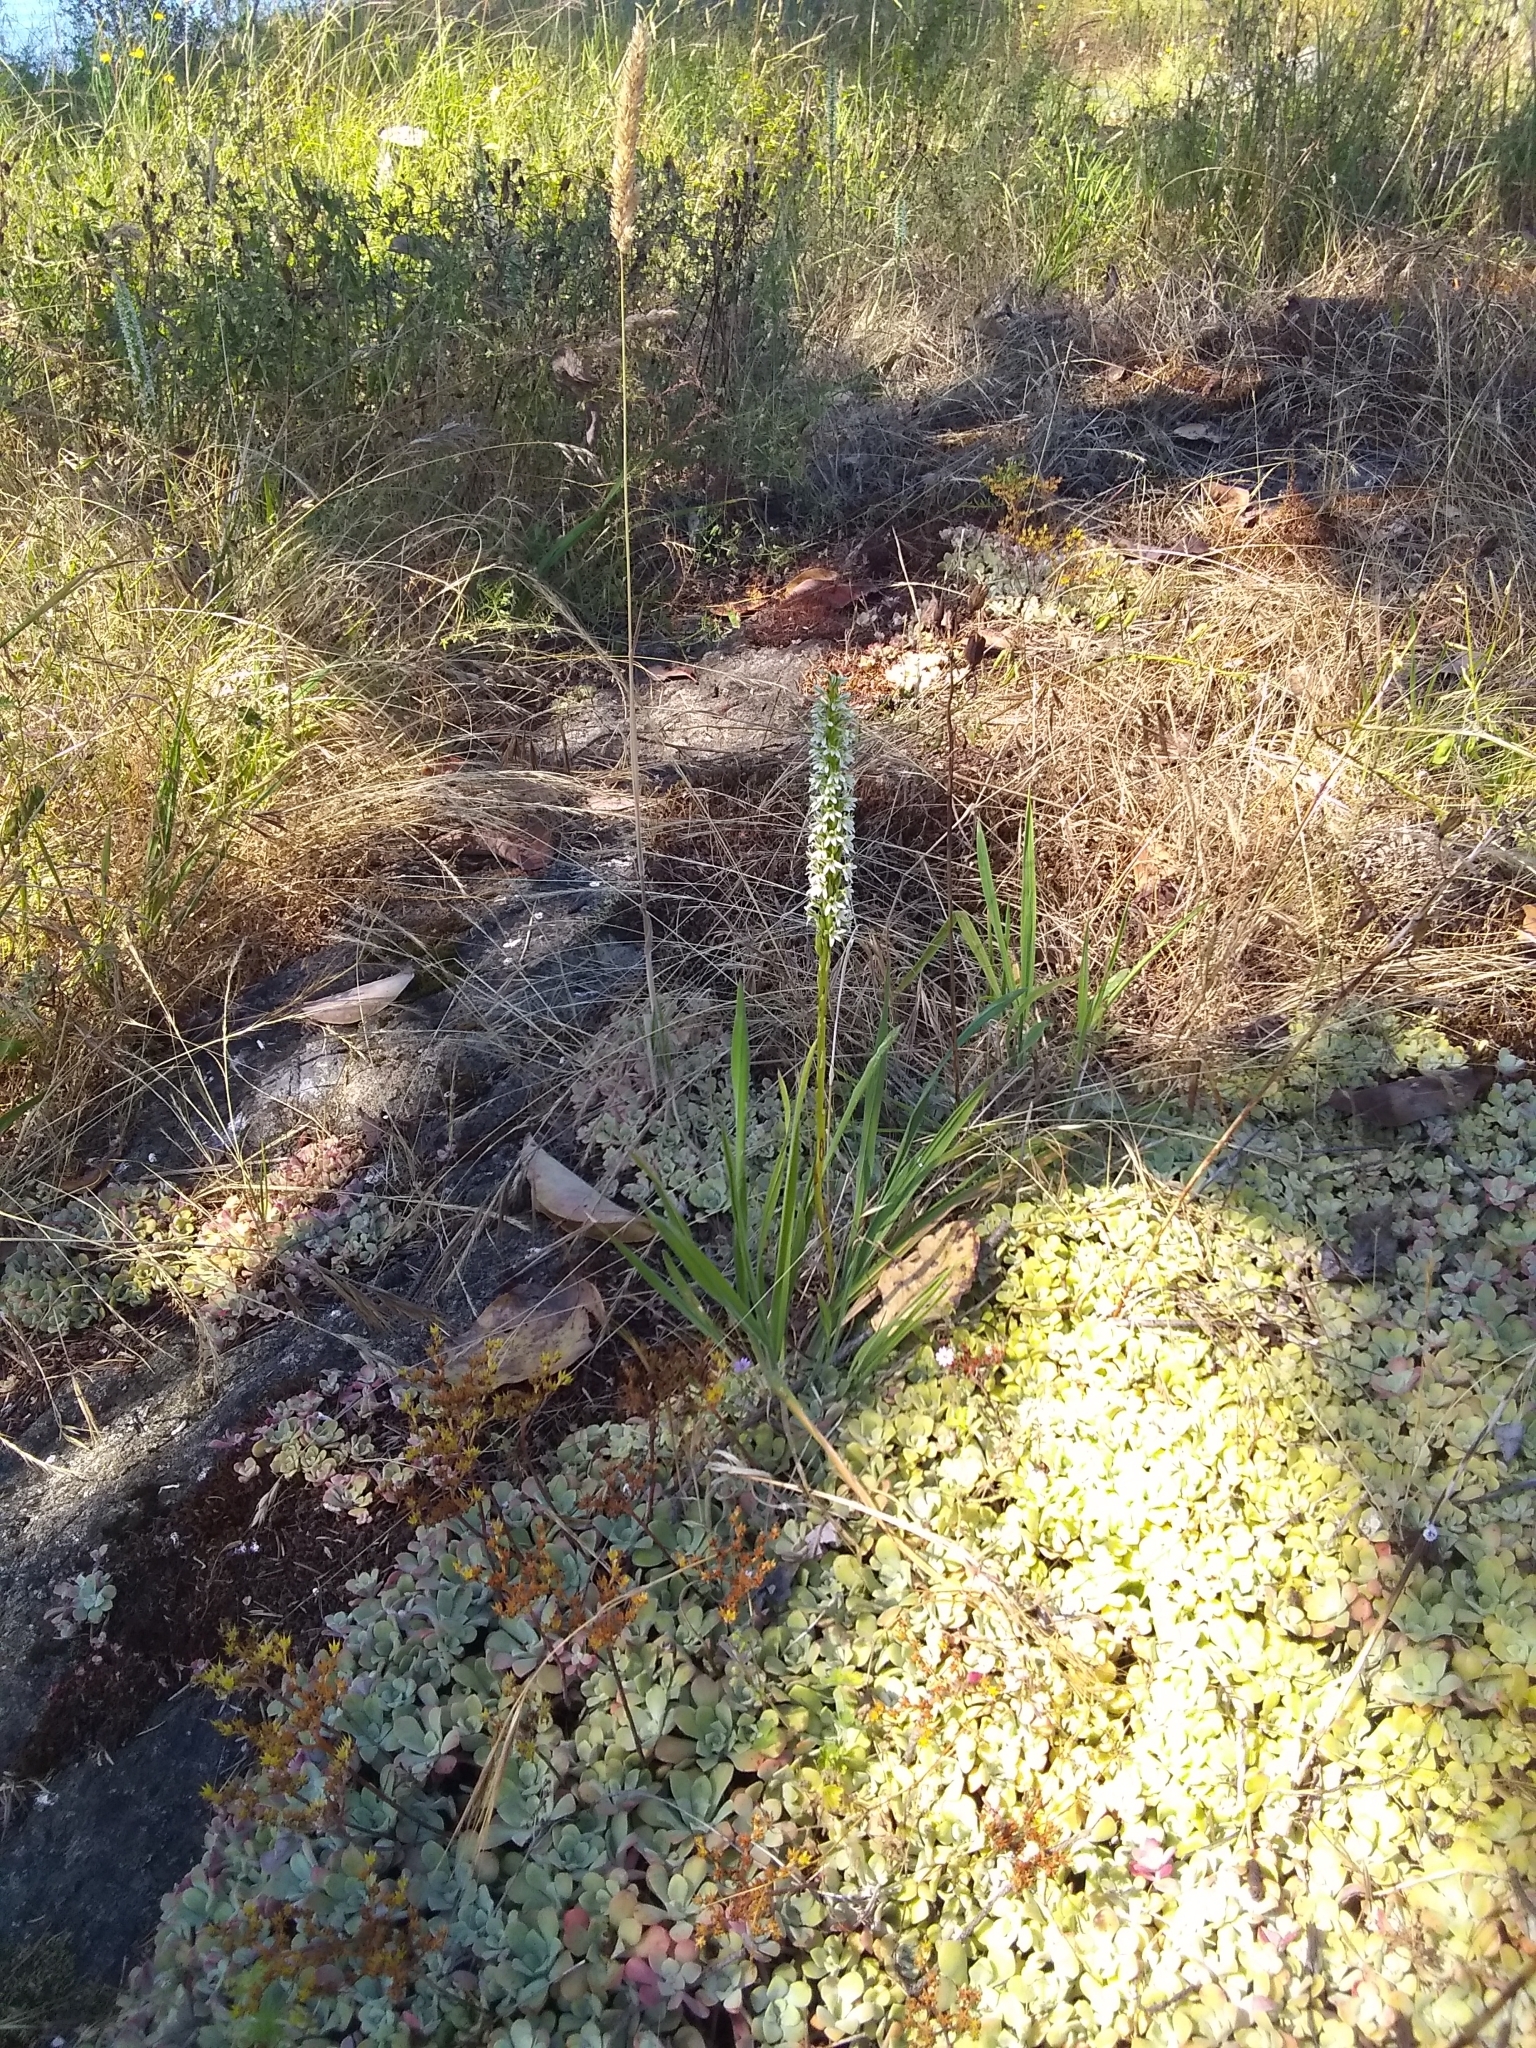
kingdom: Plantae
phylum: Tracheophyta
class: Liliopsida
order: Asparagales
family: Orchidaceae
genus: Platanthera
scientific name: Platanthera elegans
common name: Coast piperia
